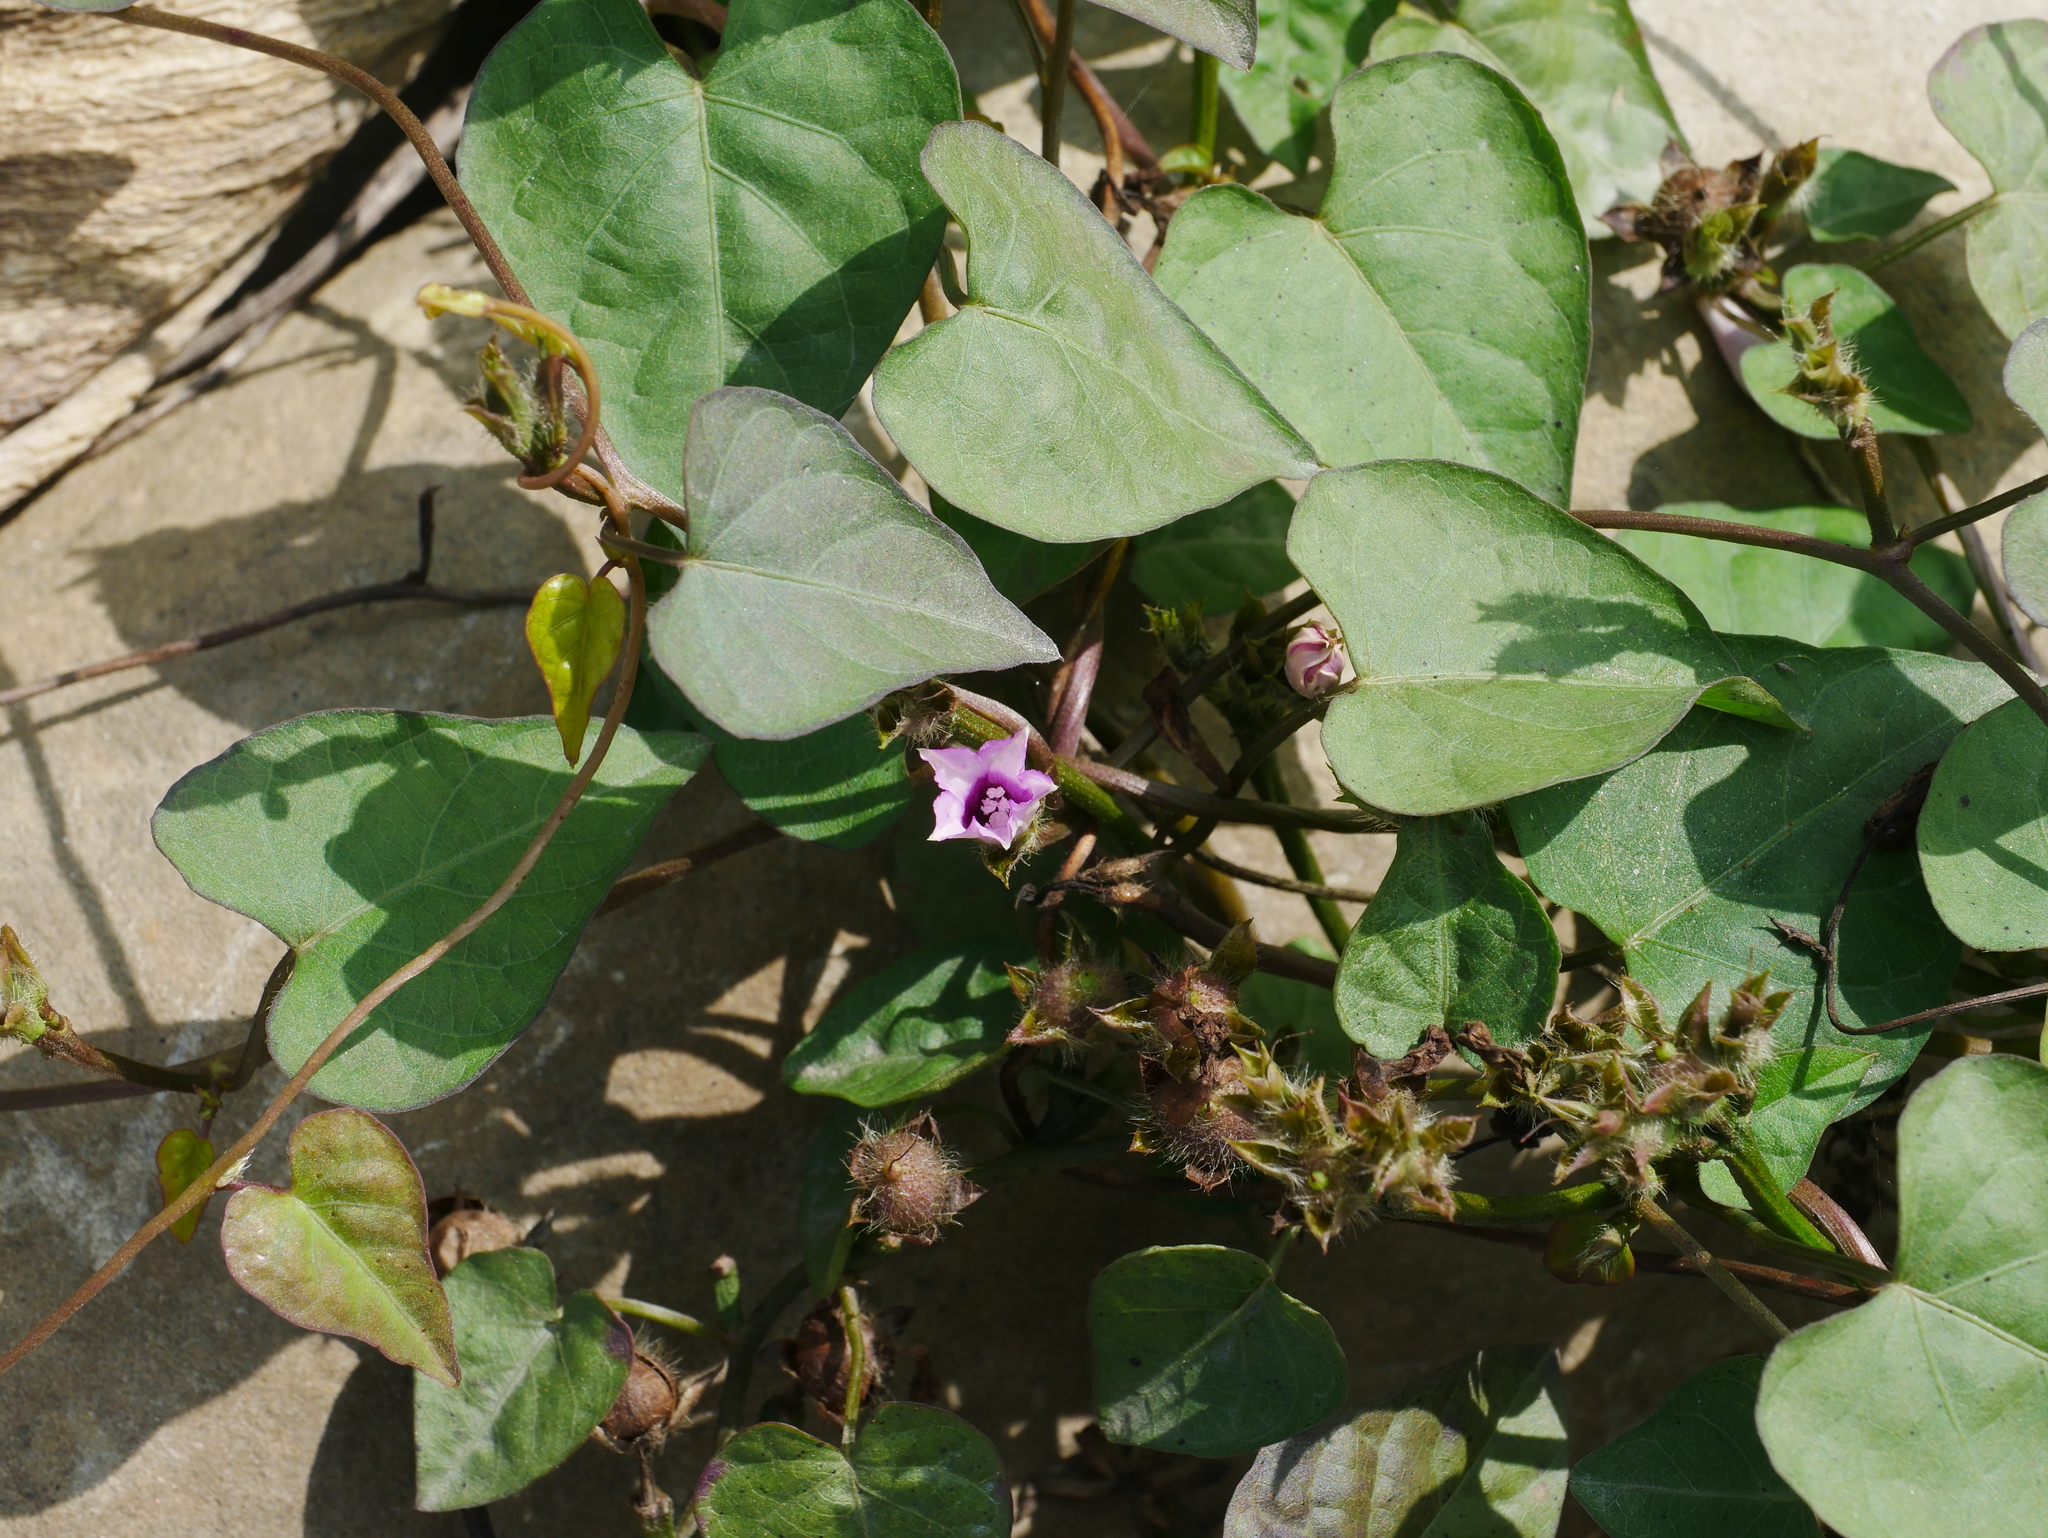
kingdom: Plantae
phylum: Tracheophyta
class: Magnoliopsida
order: Solanales
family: Convolvulaceae
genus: Ipomoea
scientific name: Ipomoea triloba
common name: Little-bell
